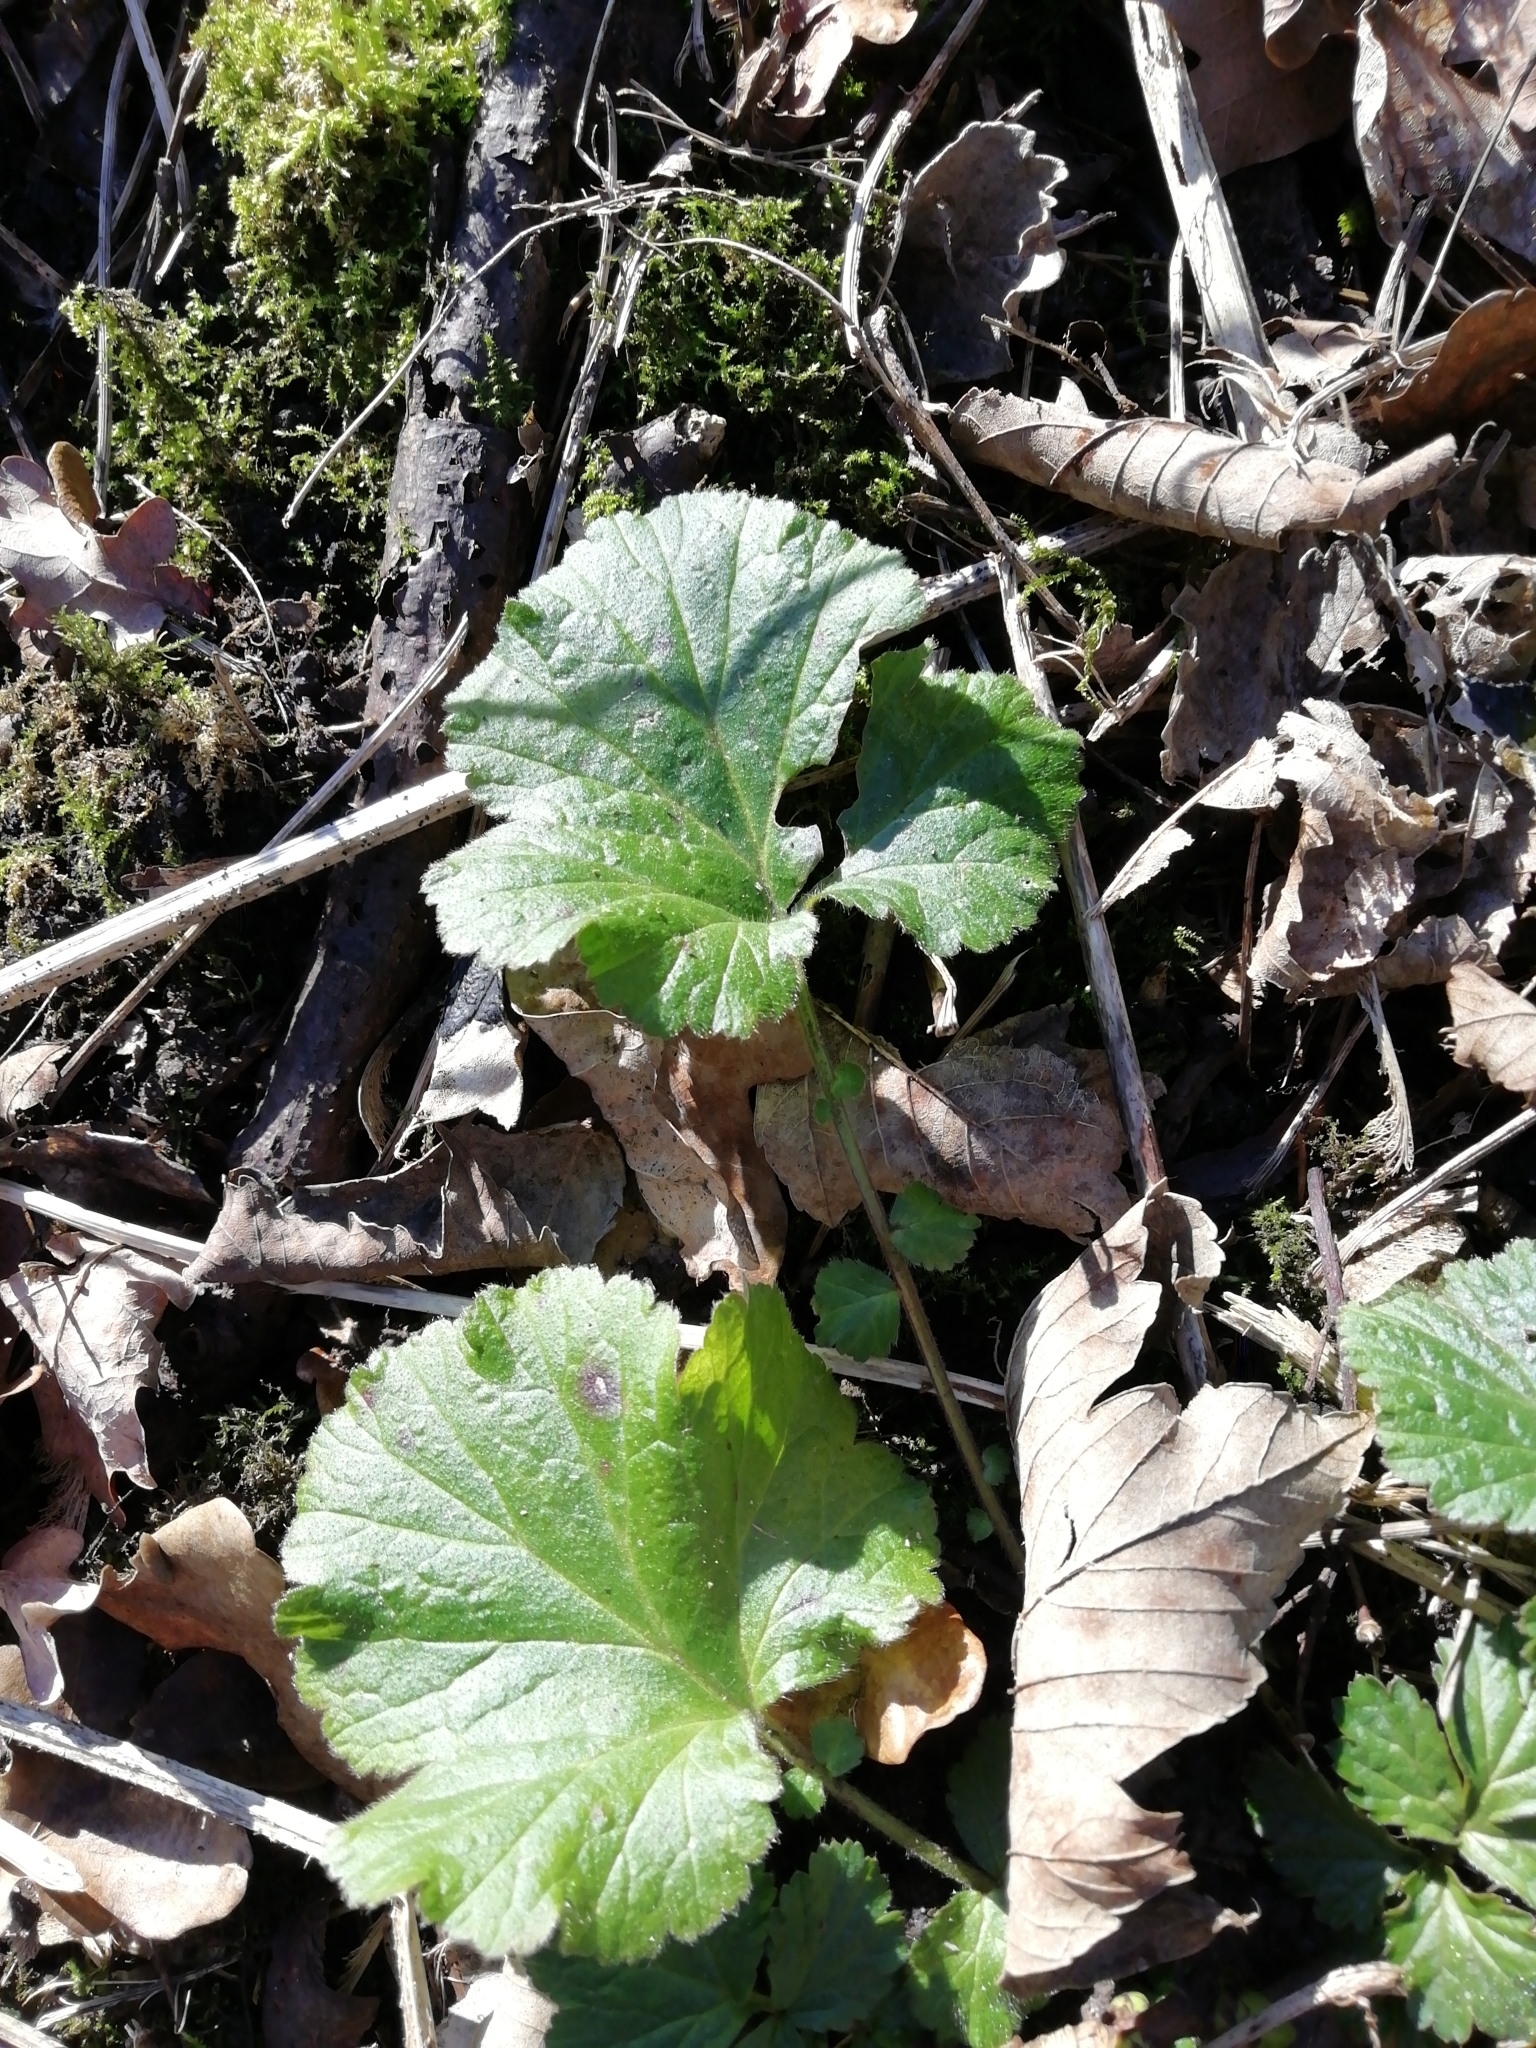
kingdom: Plantae
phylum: Tracheophyta
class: Magnoliopsida
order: Rosales
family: Rosaceae
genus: Geum
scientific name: Geum urbanum
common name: Wood avens
